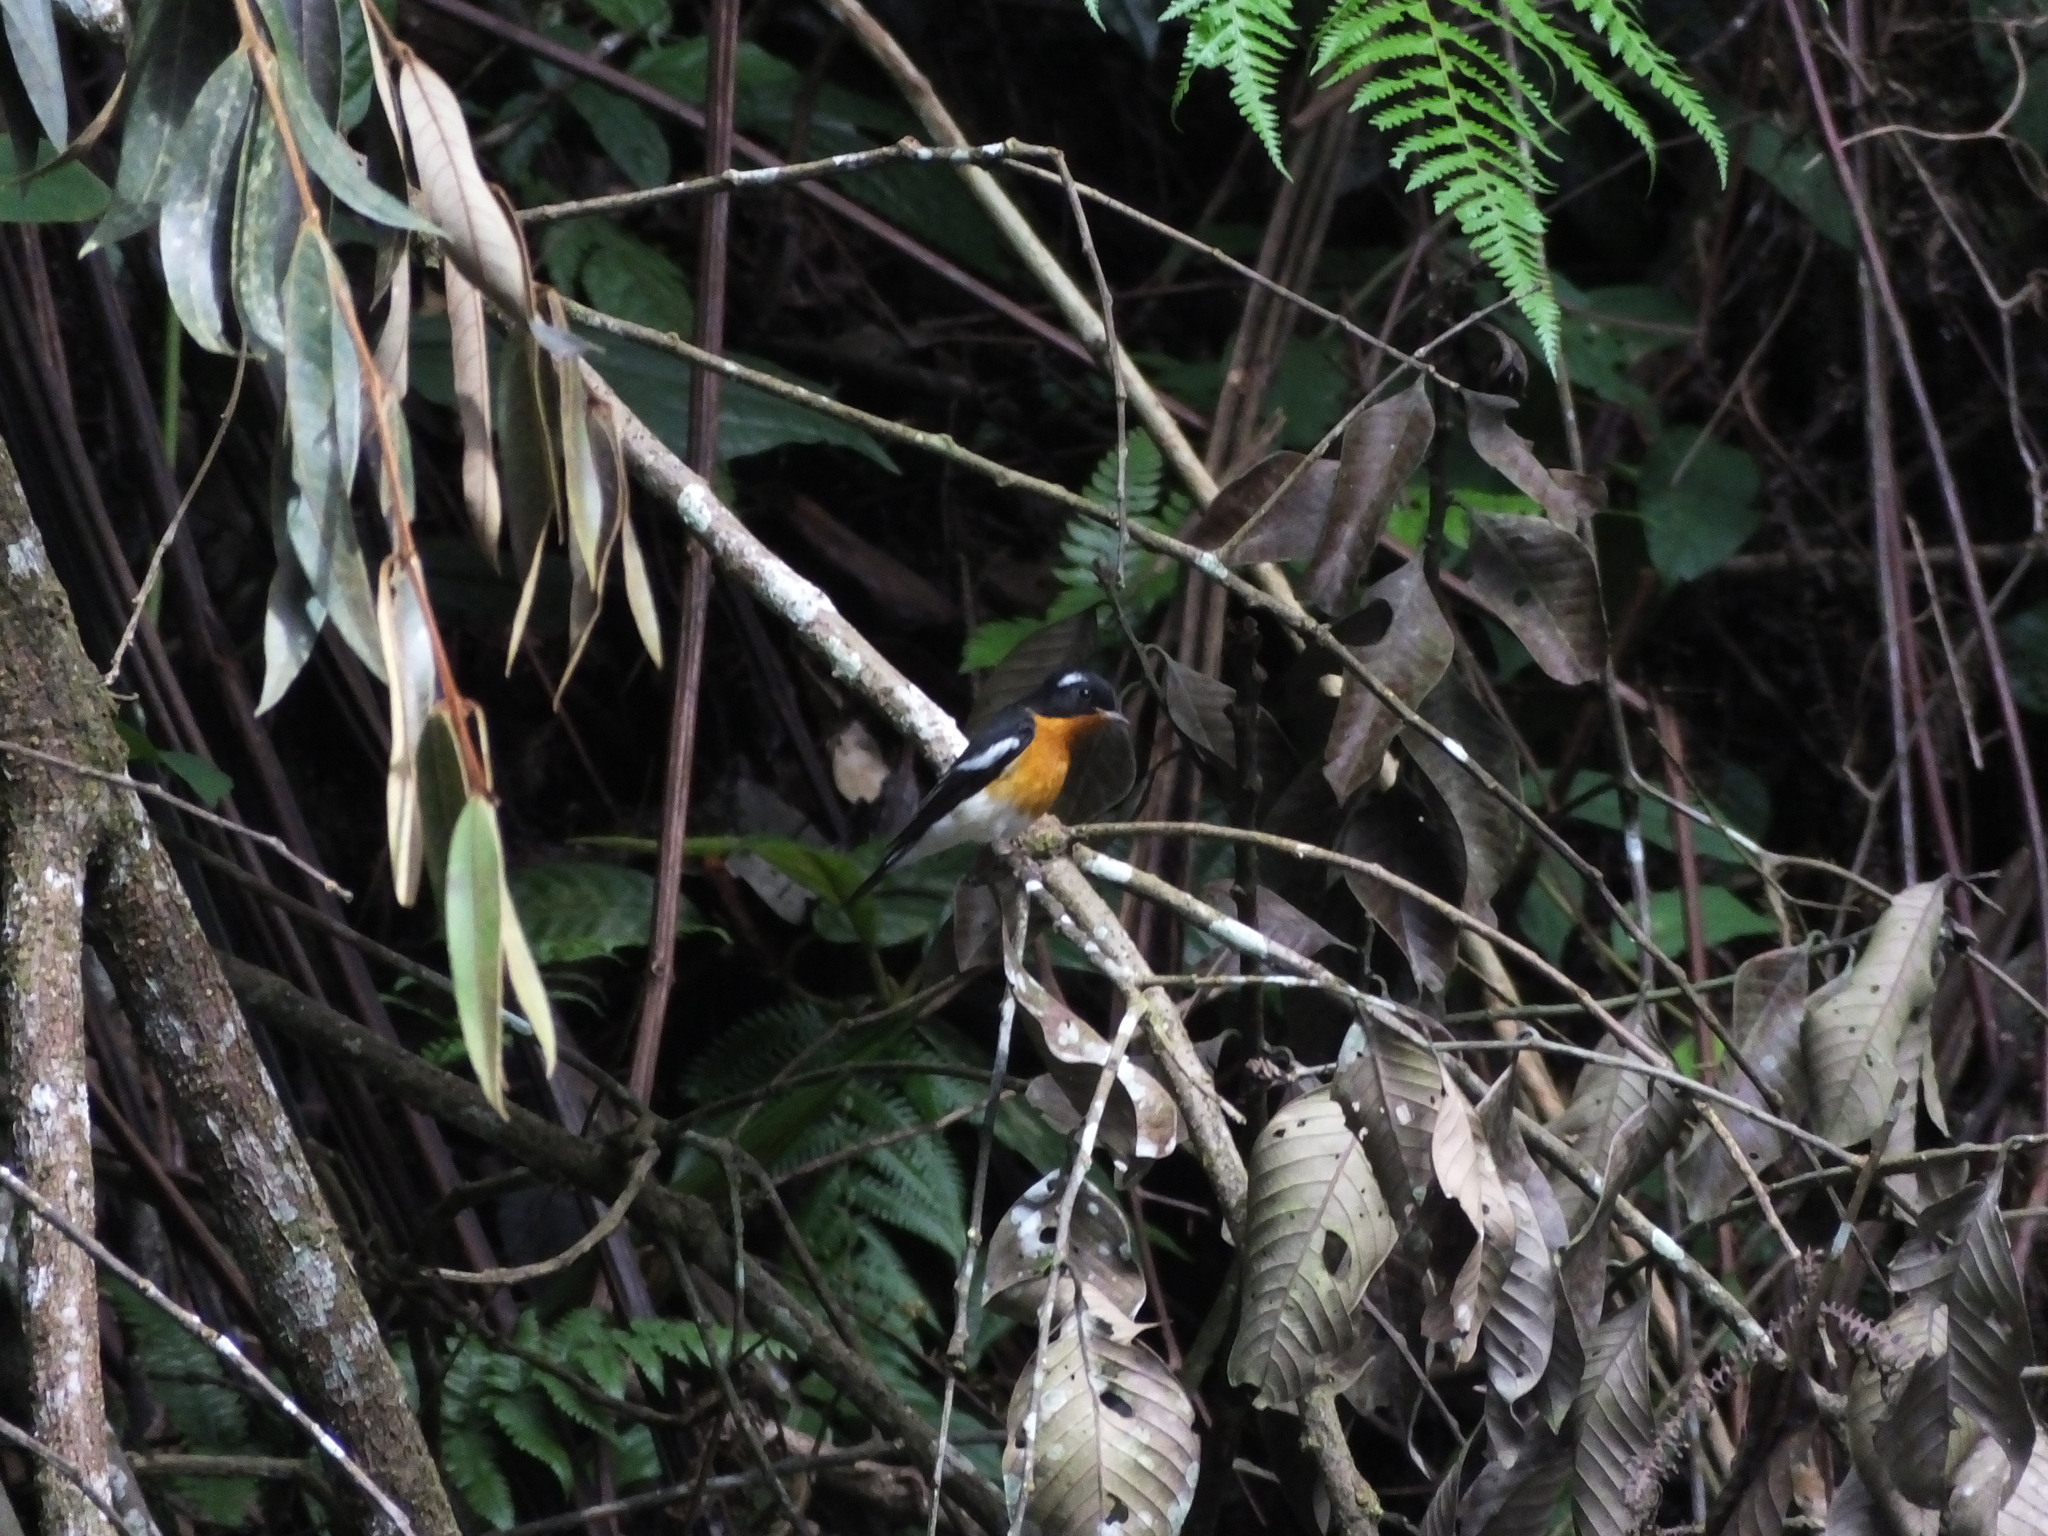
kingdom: Animalia
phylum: Chordata
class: Aves
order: Passeriformes
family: Muscicapidae
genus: Ficedula
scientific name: Ficedula mugimaki
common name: Mugimaki flycatcher
